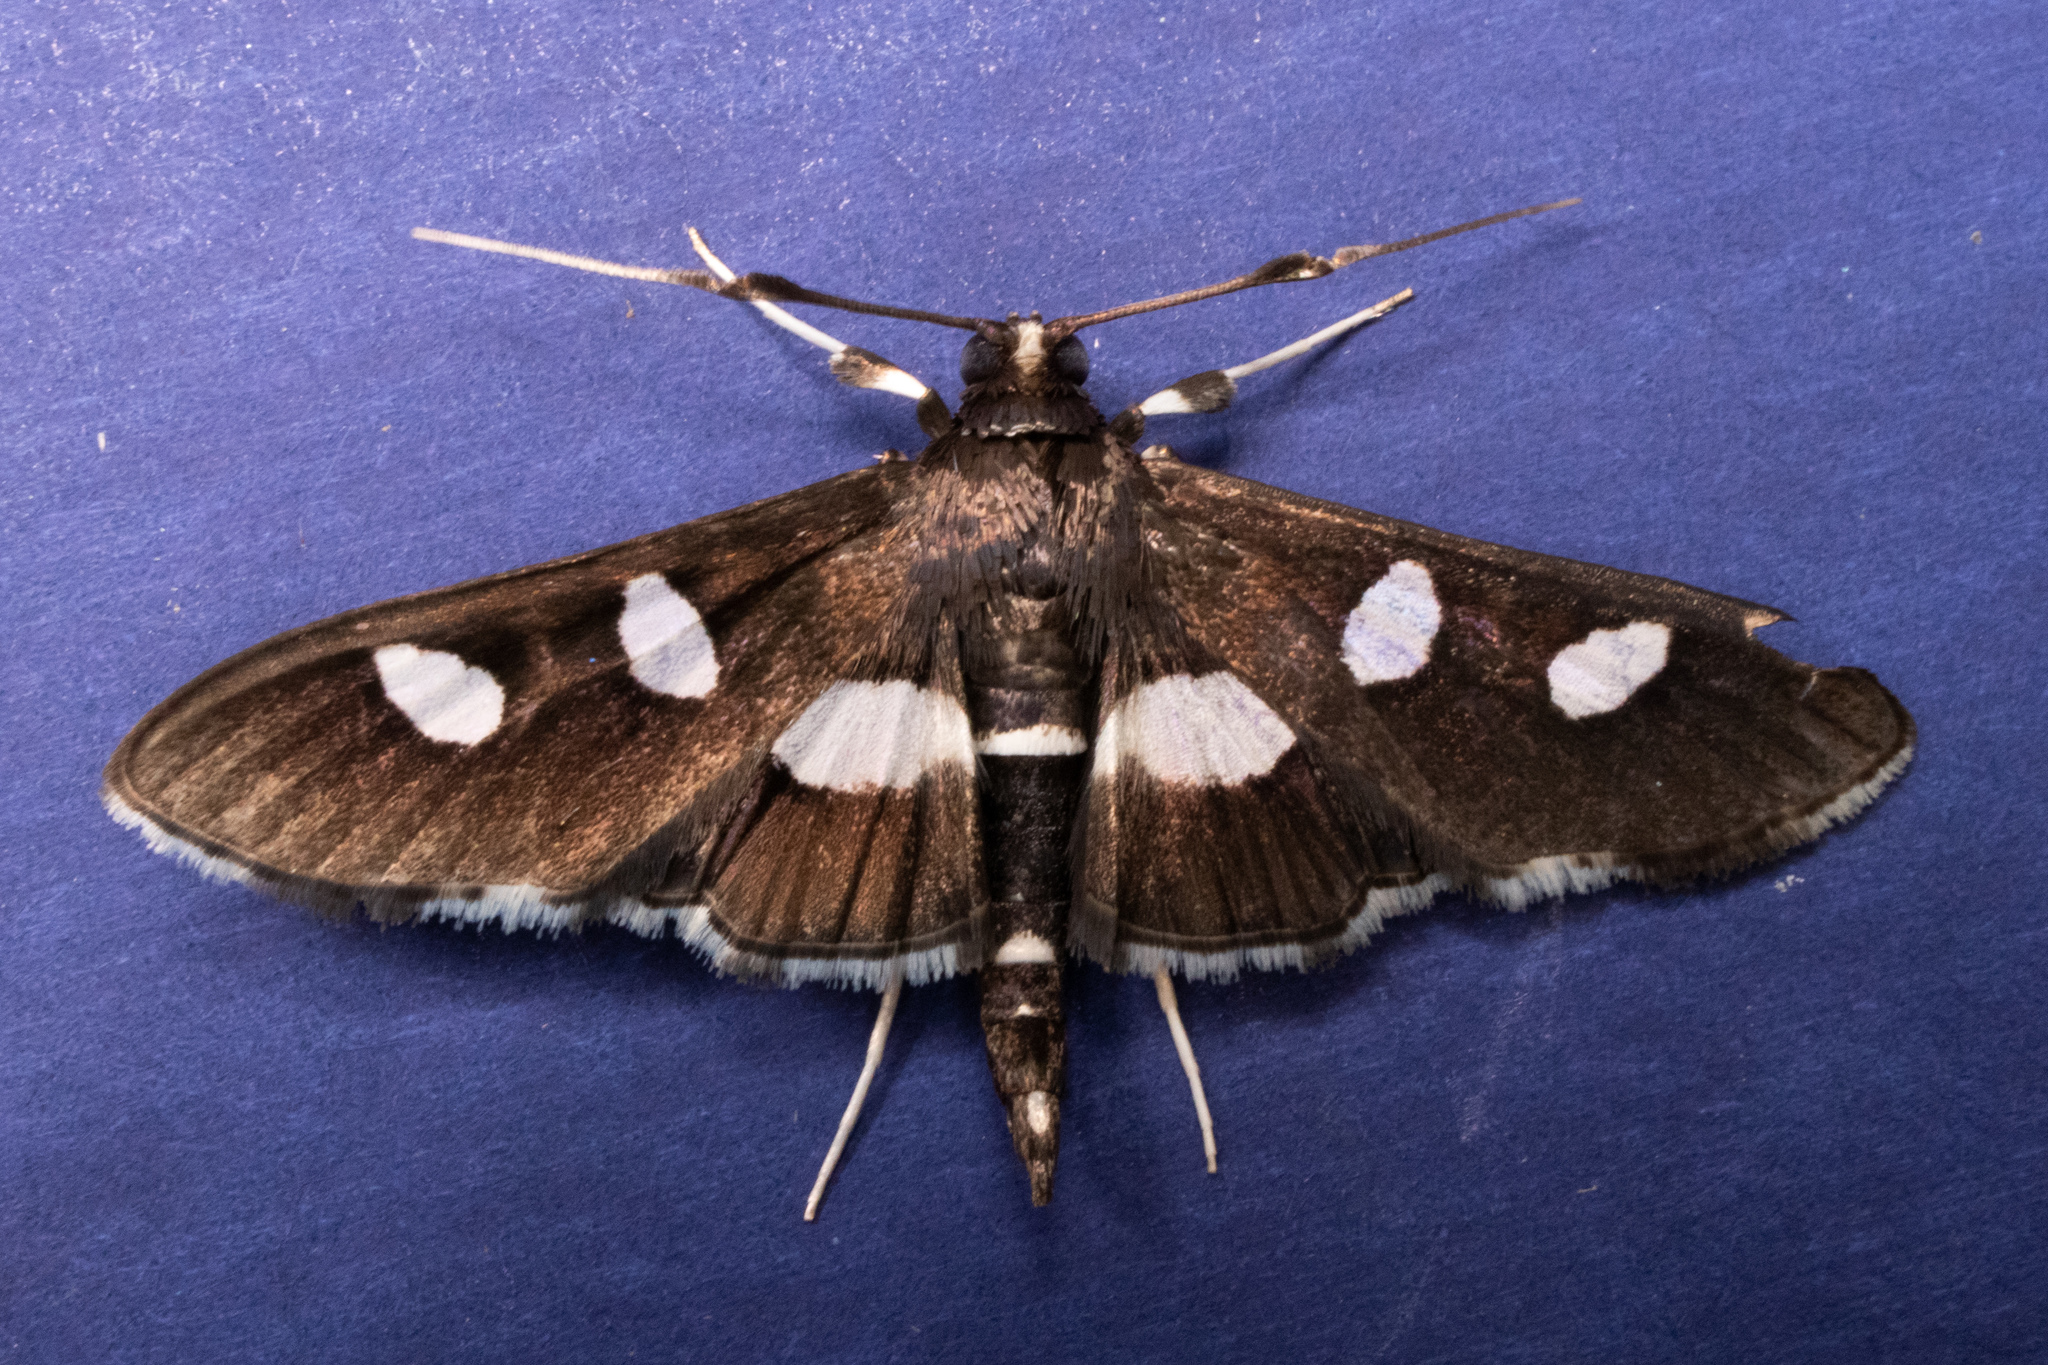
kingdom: Animalia
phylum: Arthropoda
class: Insecta
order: Lepidoptera
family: Crambidae
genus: Desmia
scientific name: Desmia funeralis
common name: Grape leaf folder moth
